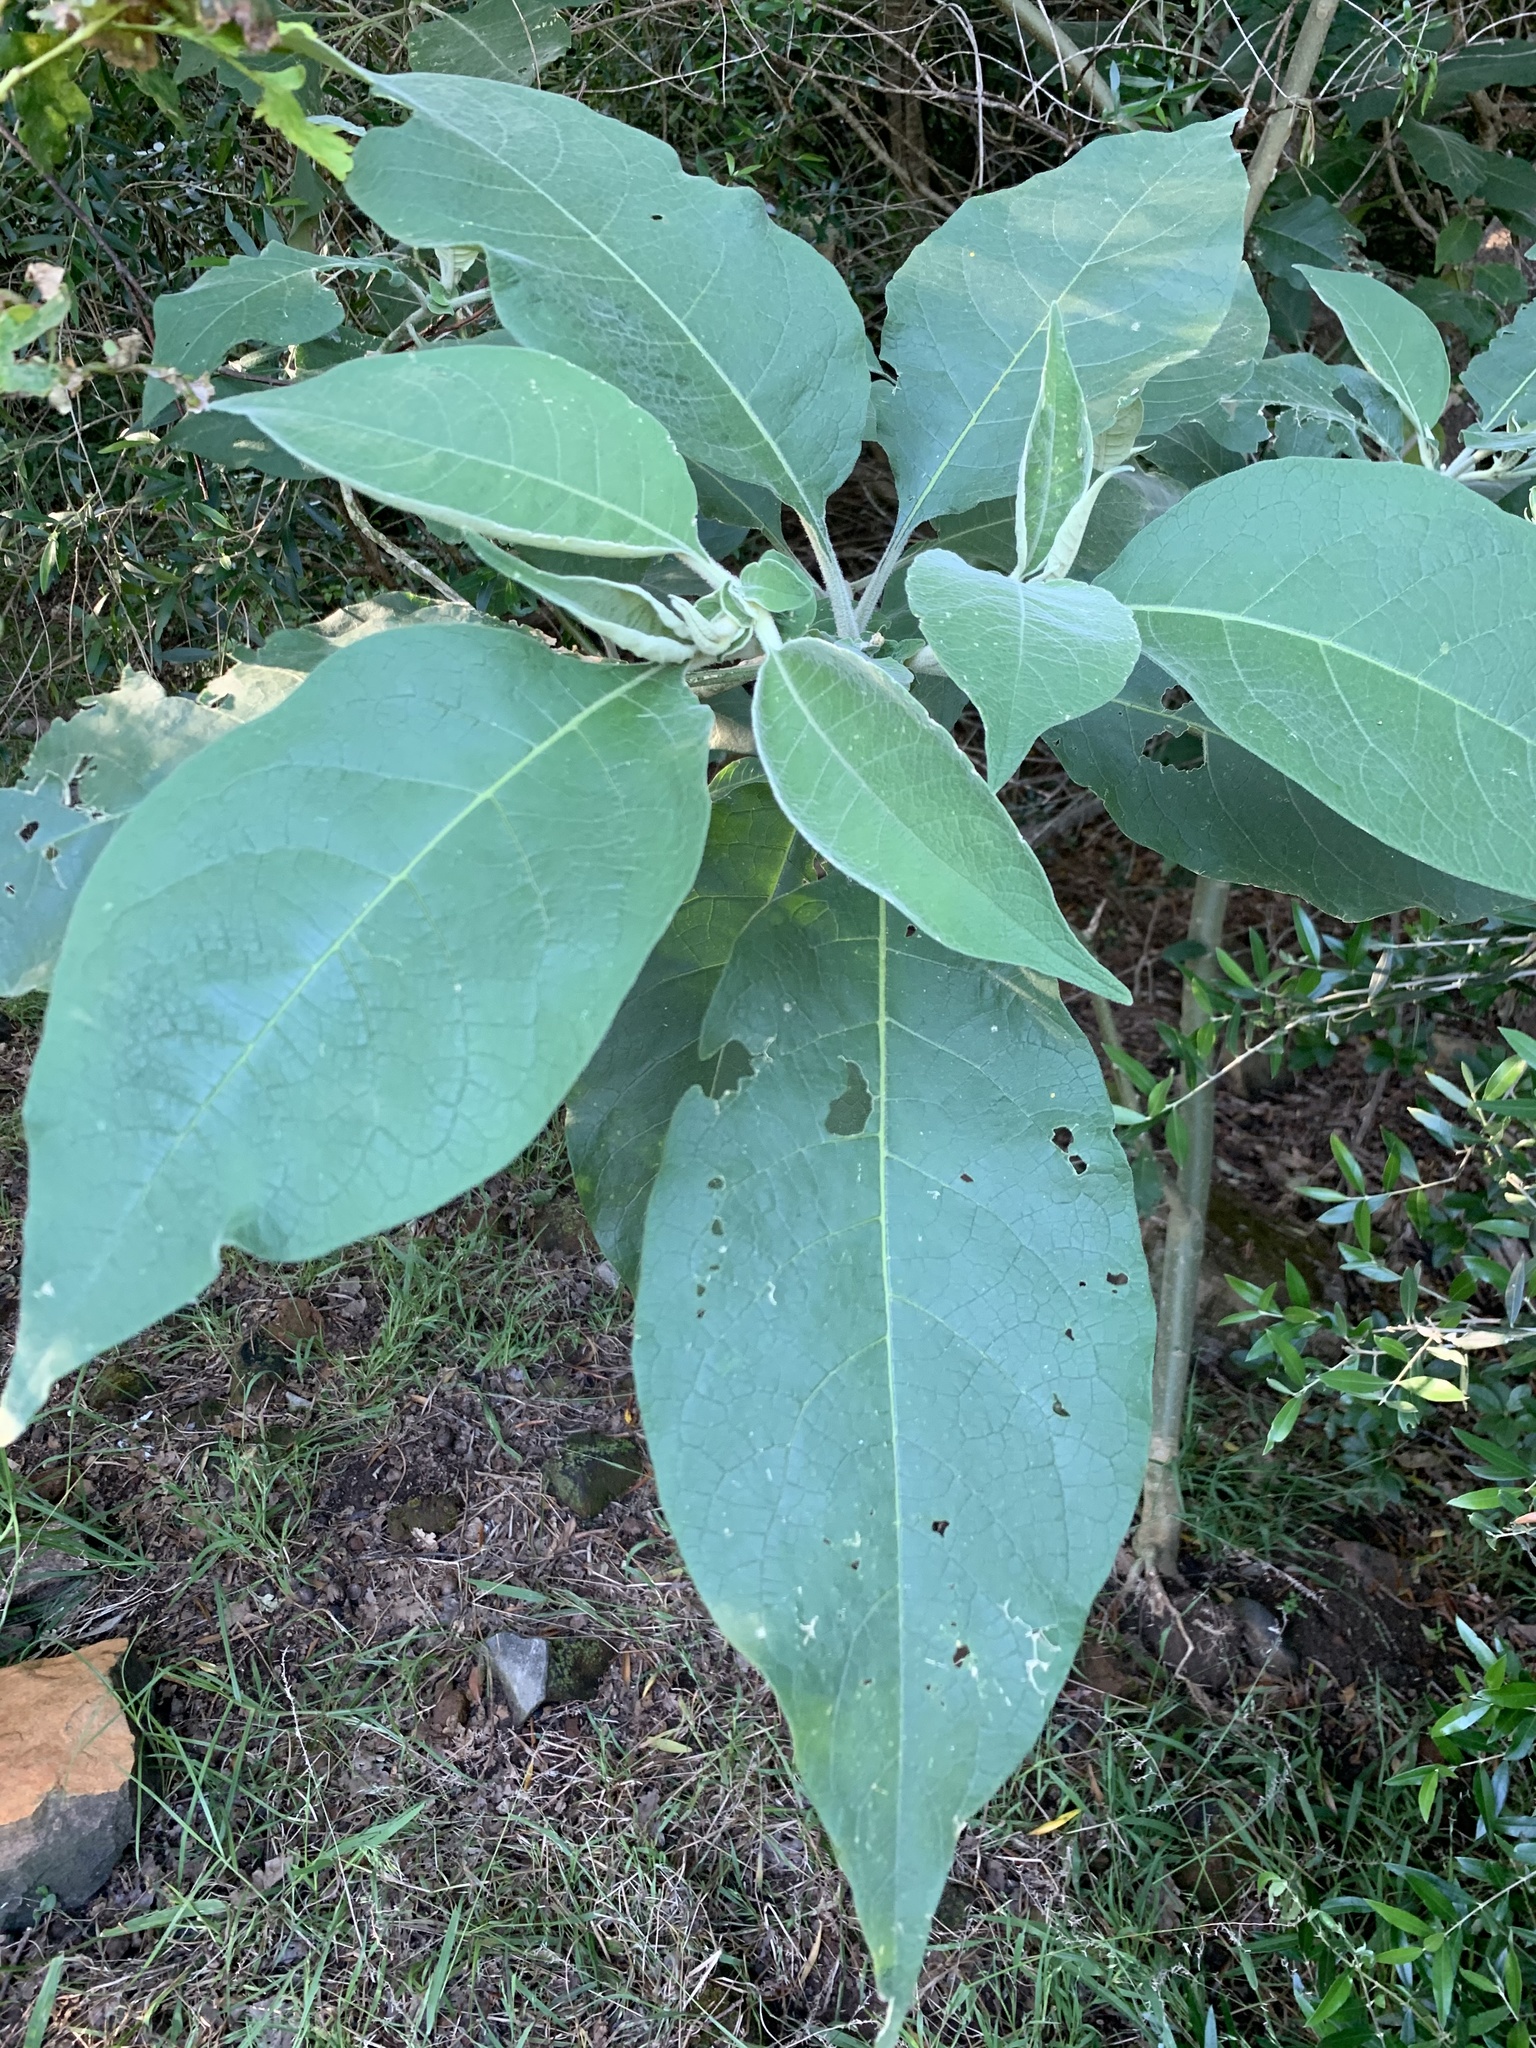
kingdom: Plantae
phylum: Tracheophyta
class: Magnoliopsida
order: Solanales
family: Solanaceae
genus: Solanum
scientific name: Solanum mauritianum
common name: Earleaf nightshade
